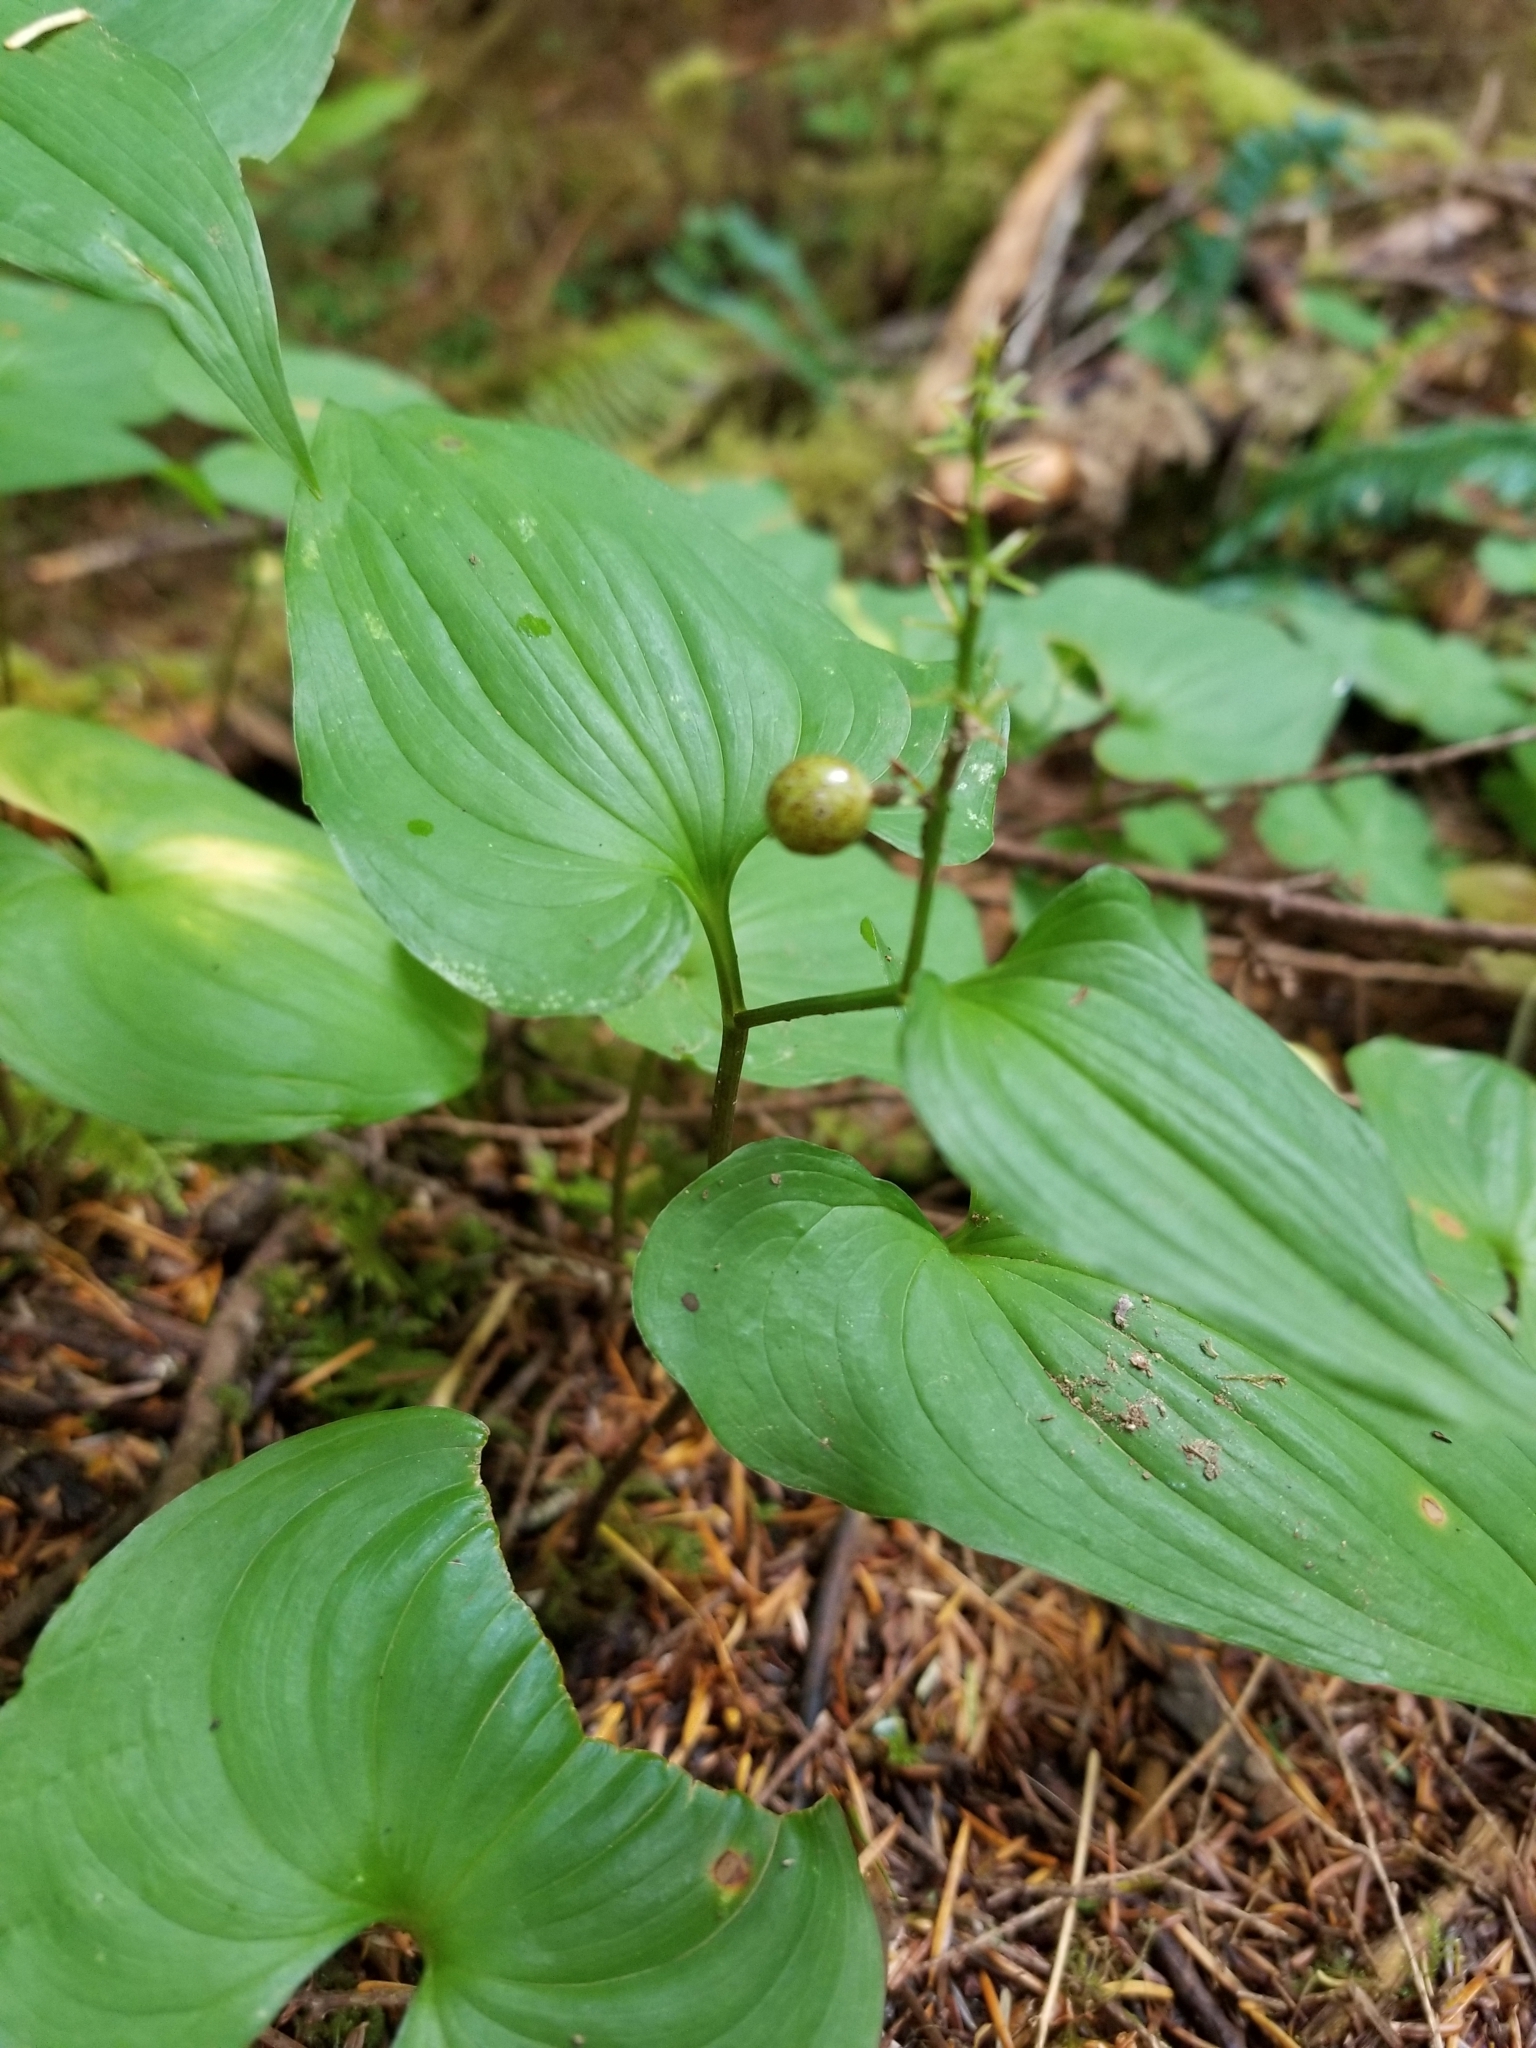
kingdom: Plantae
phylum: Tracheophyta
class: Liliopsida
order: Asparagales
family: Asparagaceae
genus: Maianthemum
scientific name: Maianthemum dilatatum
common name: False lily-of-the-valley
